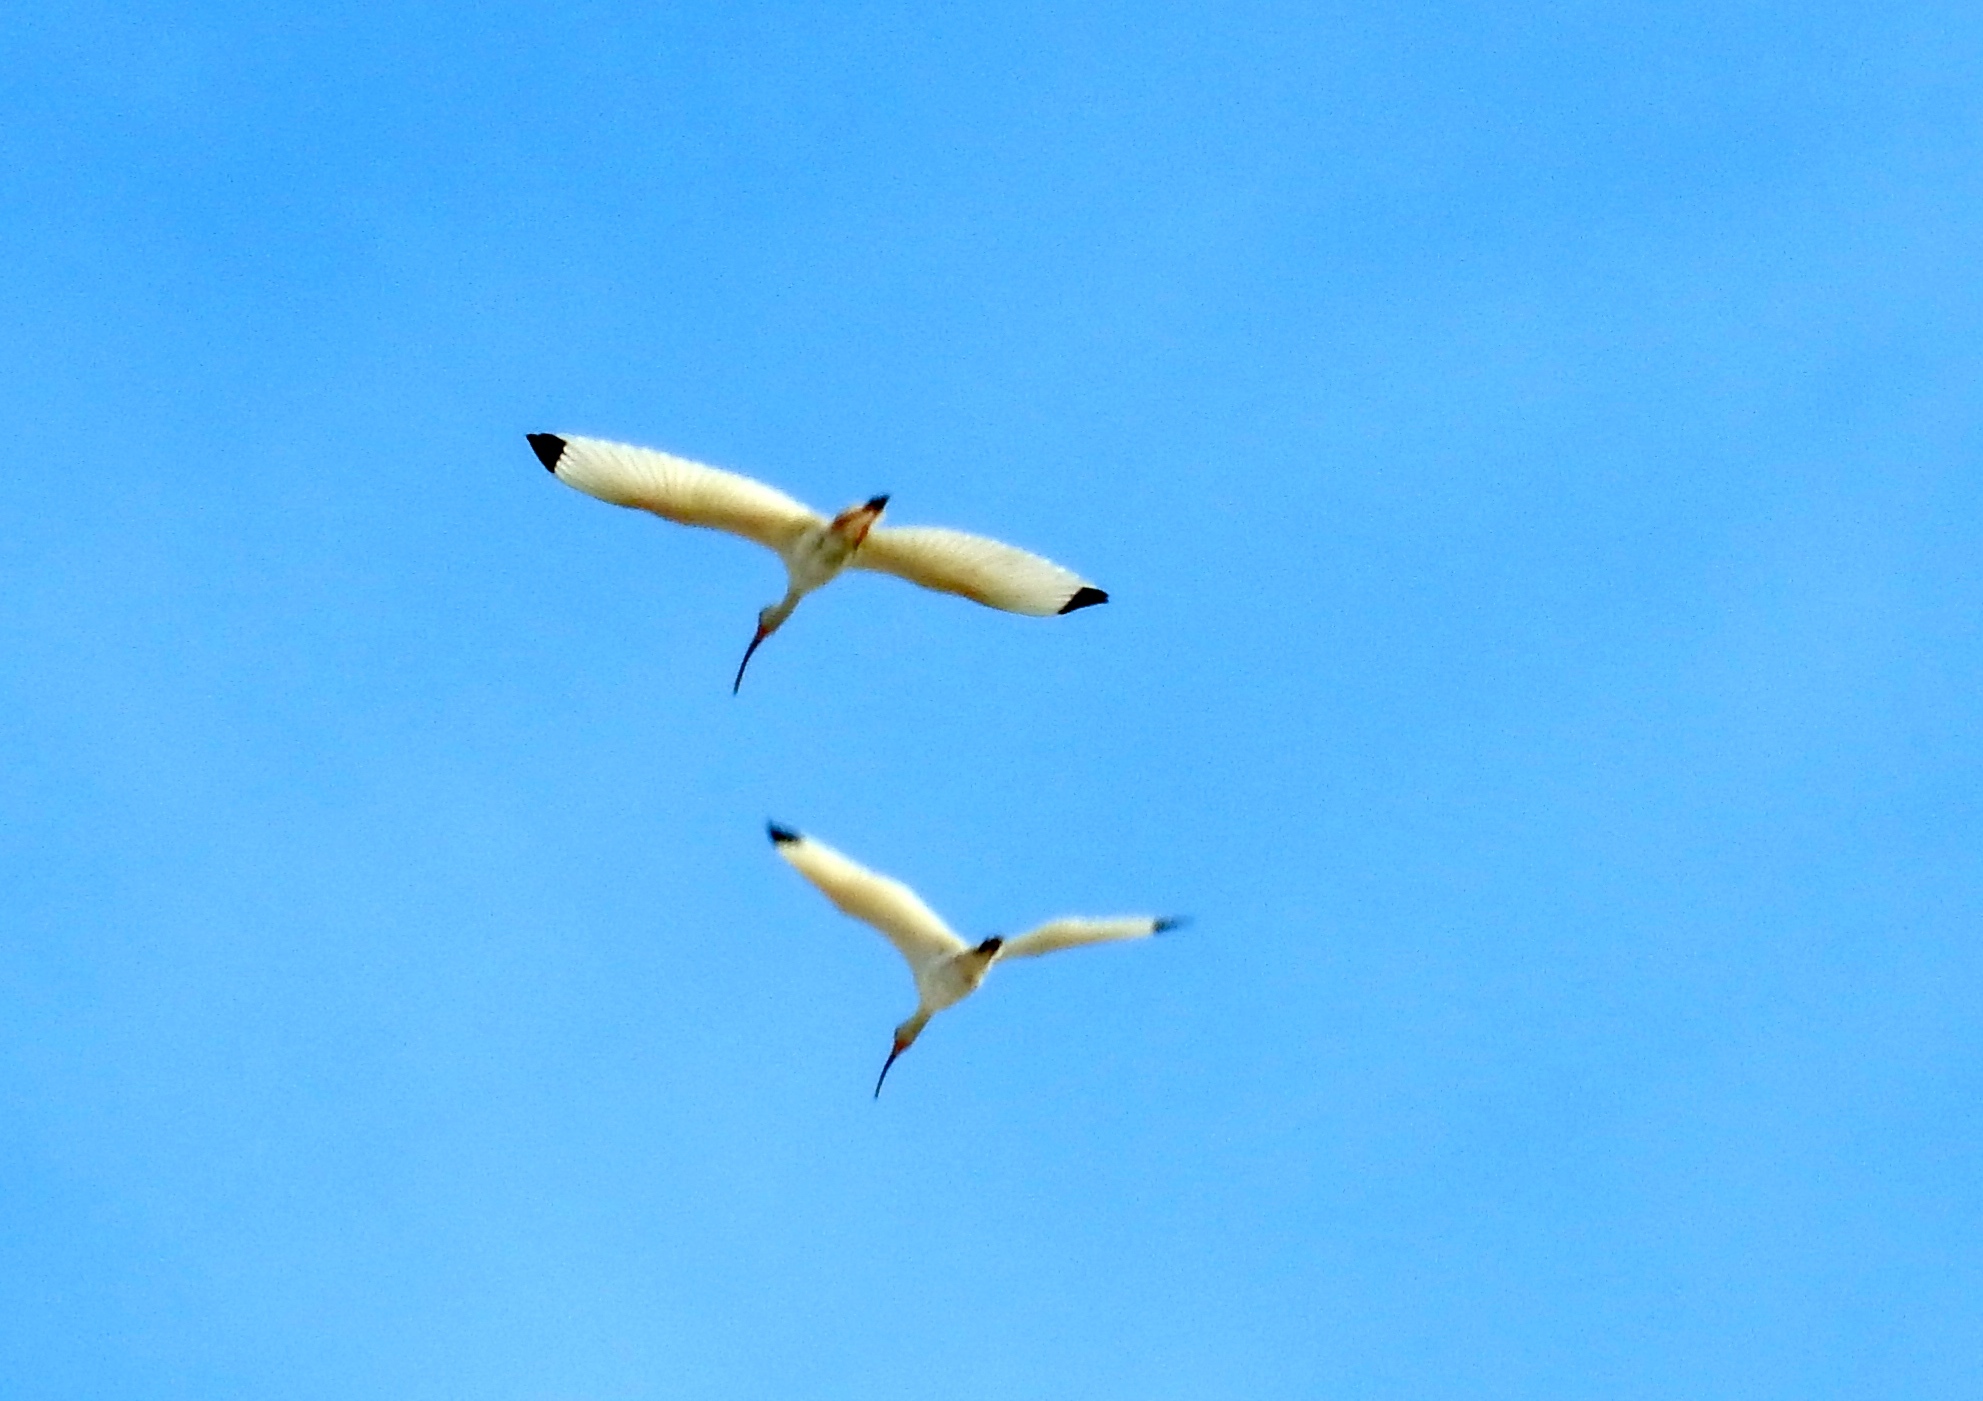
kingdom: Animalia
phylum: Chordata
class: Aves
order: Pelecaniformes
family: Threskiornithidae
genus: Eudocimus
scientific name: Eudocimus albus
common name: White ibis
